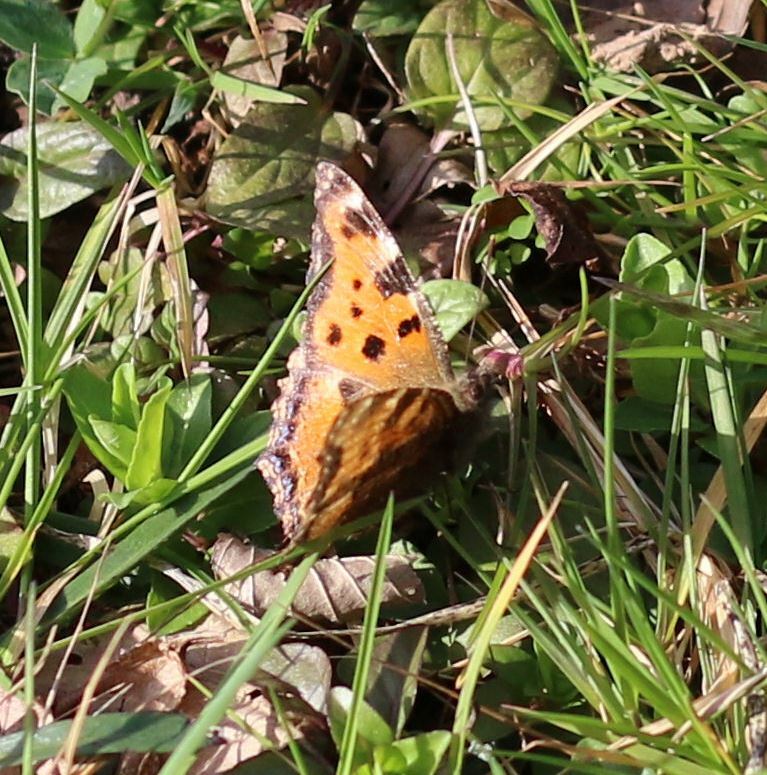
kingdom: Animalia
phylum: Arthropoda
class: Insecta
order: Lepidoptera
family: Nymphalidae
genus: Nymphalis
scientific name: Nymphalis polychloros
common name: Large tortoiseshell
